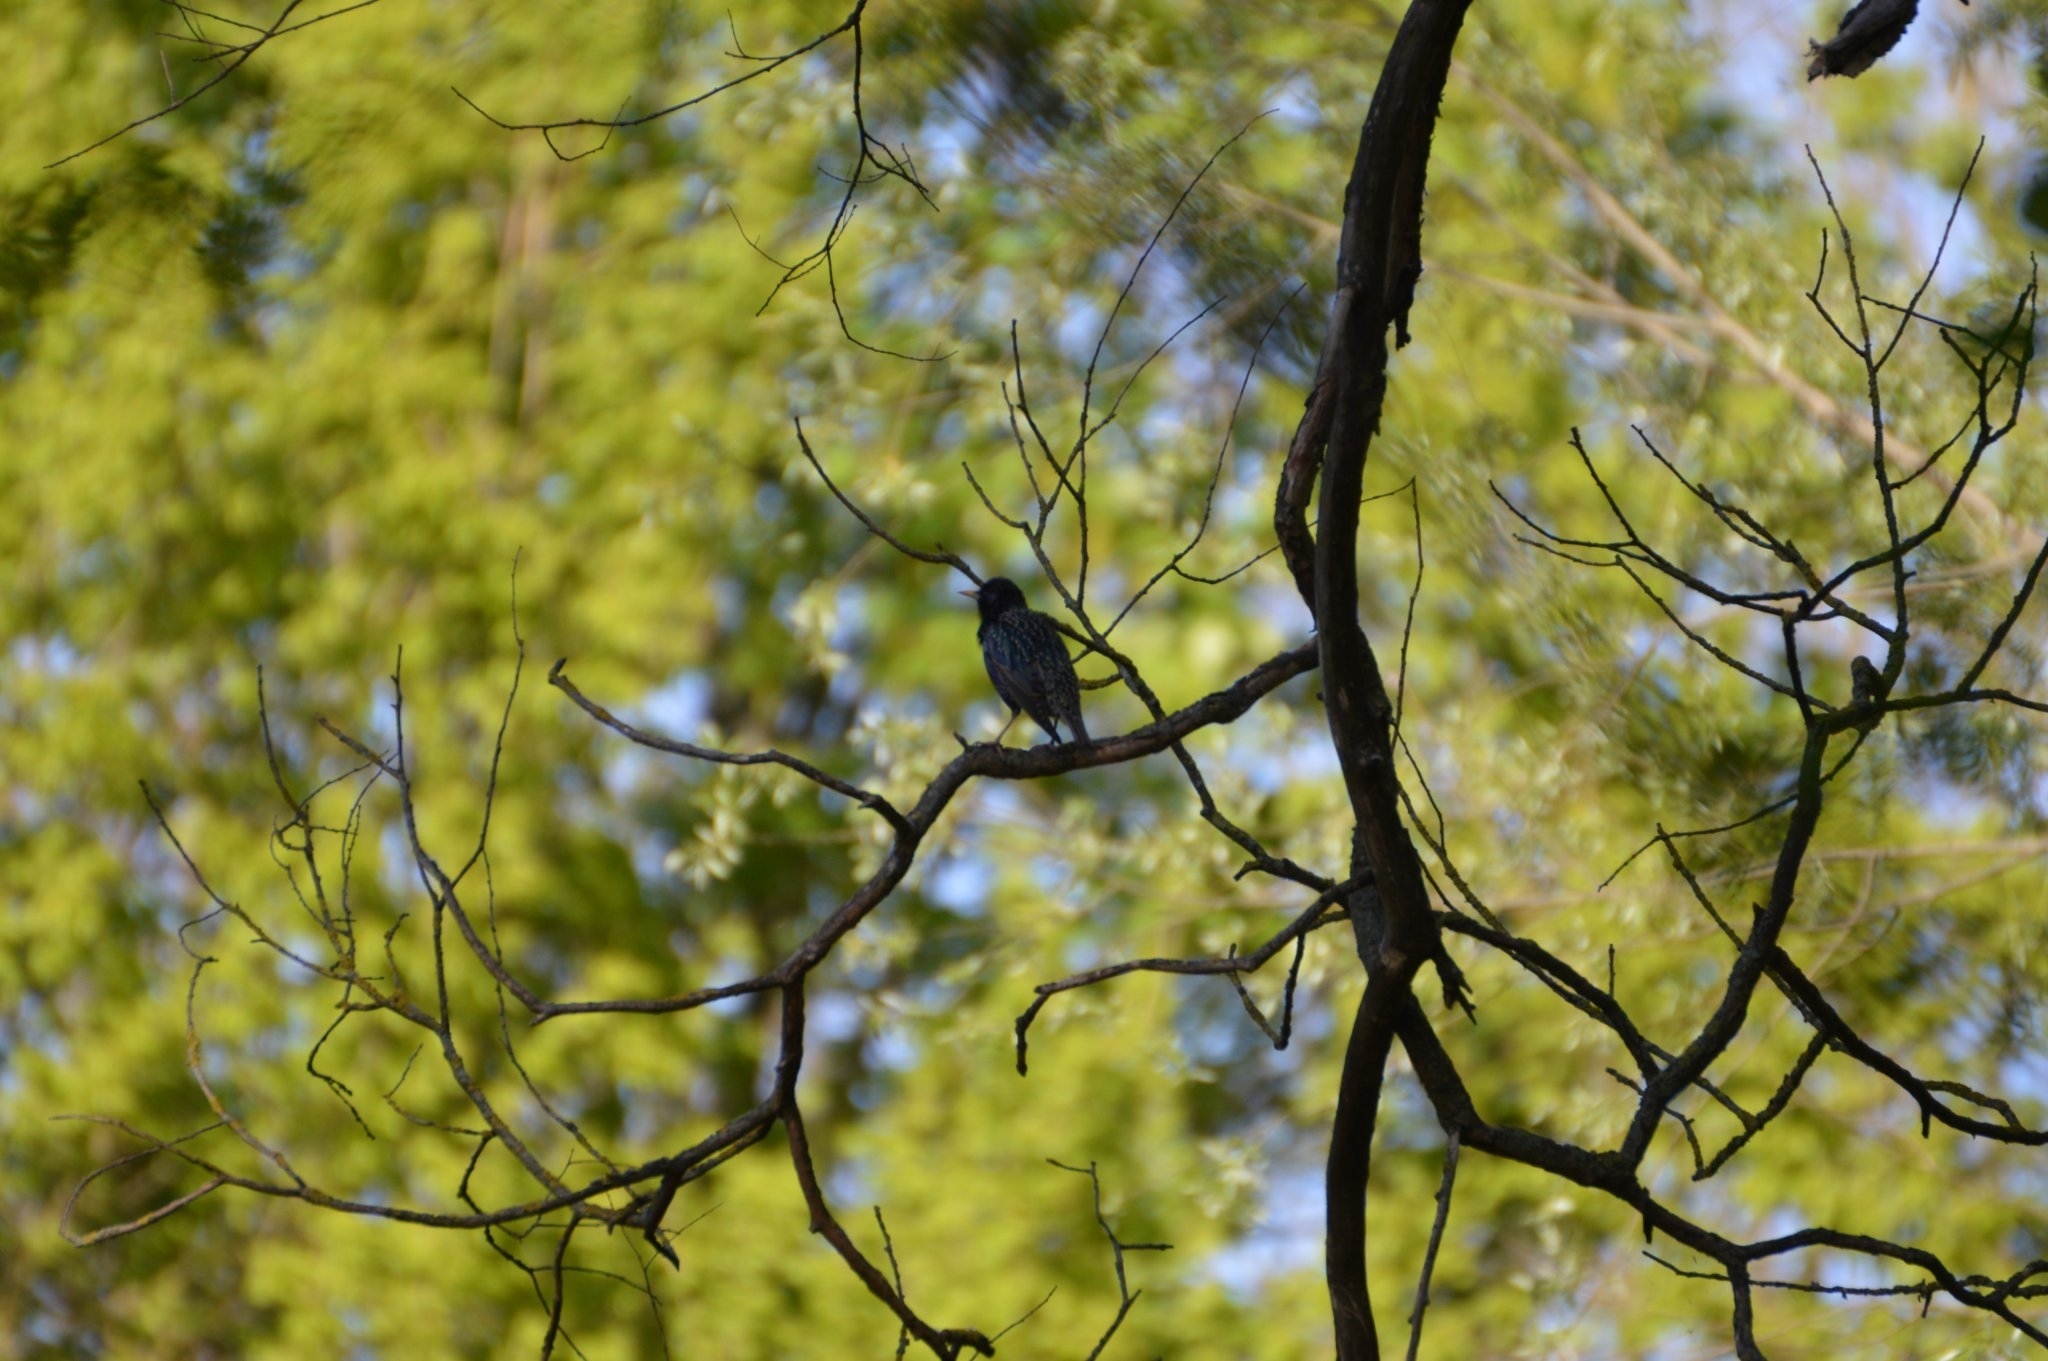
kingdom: Animalia
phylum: Chordata
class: Aves
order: Passeriformes
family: Sturnidae
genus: Sturnus
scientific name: Sturnus vulgaris
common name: Common starling
